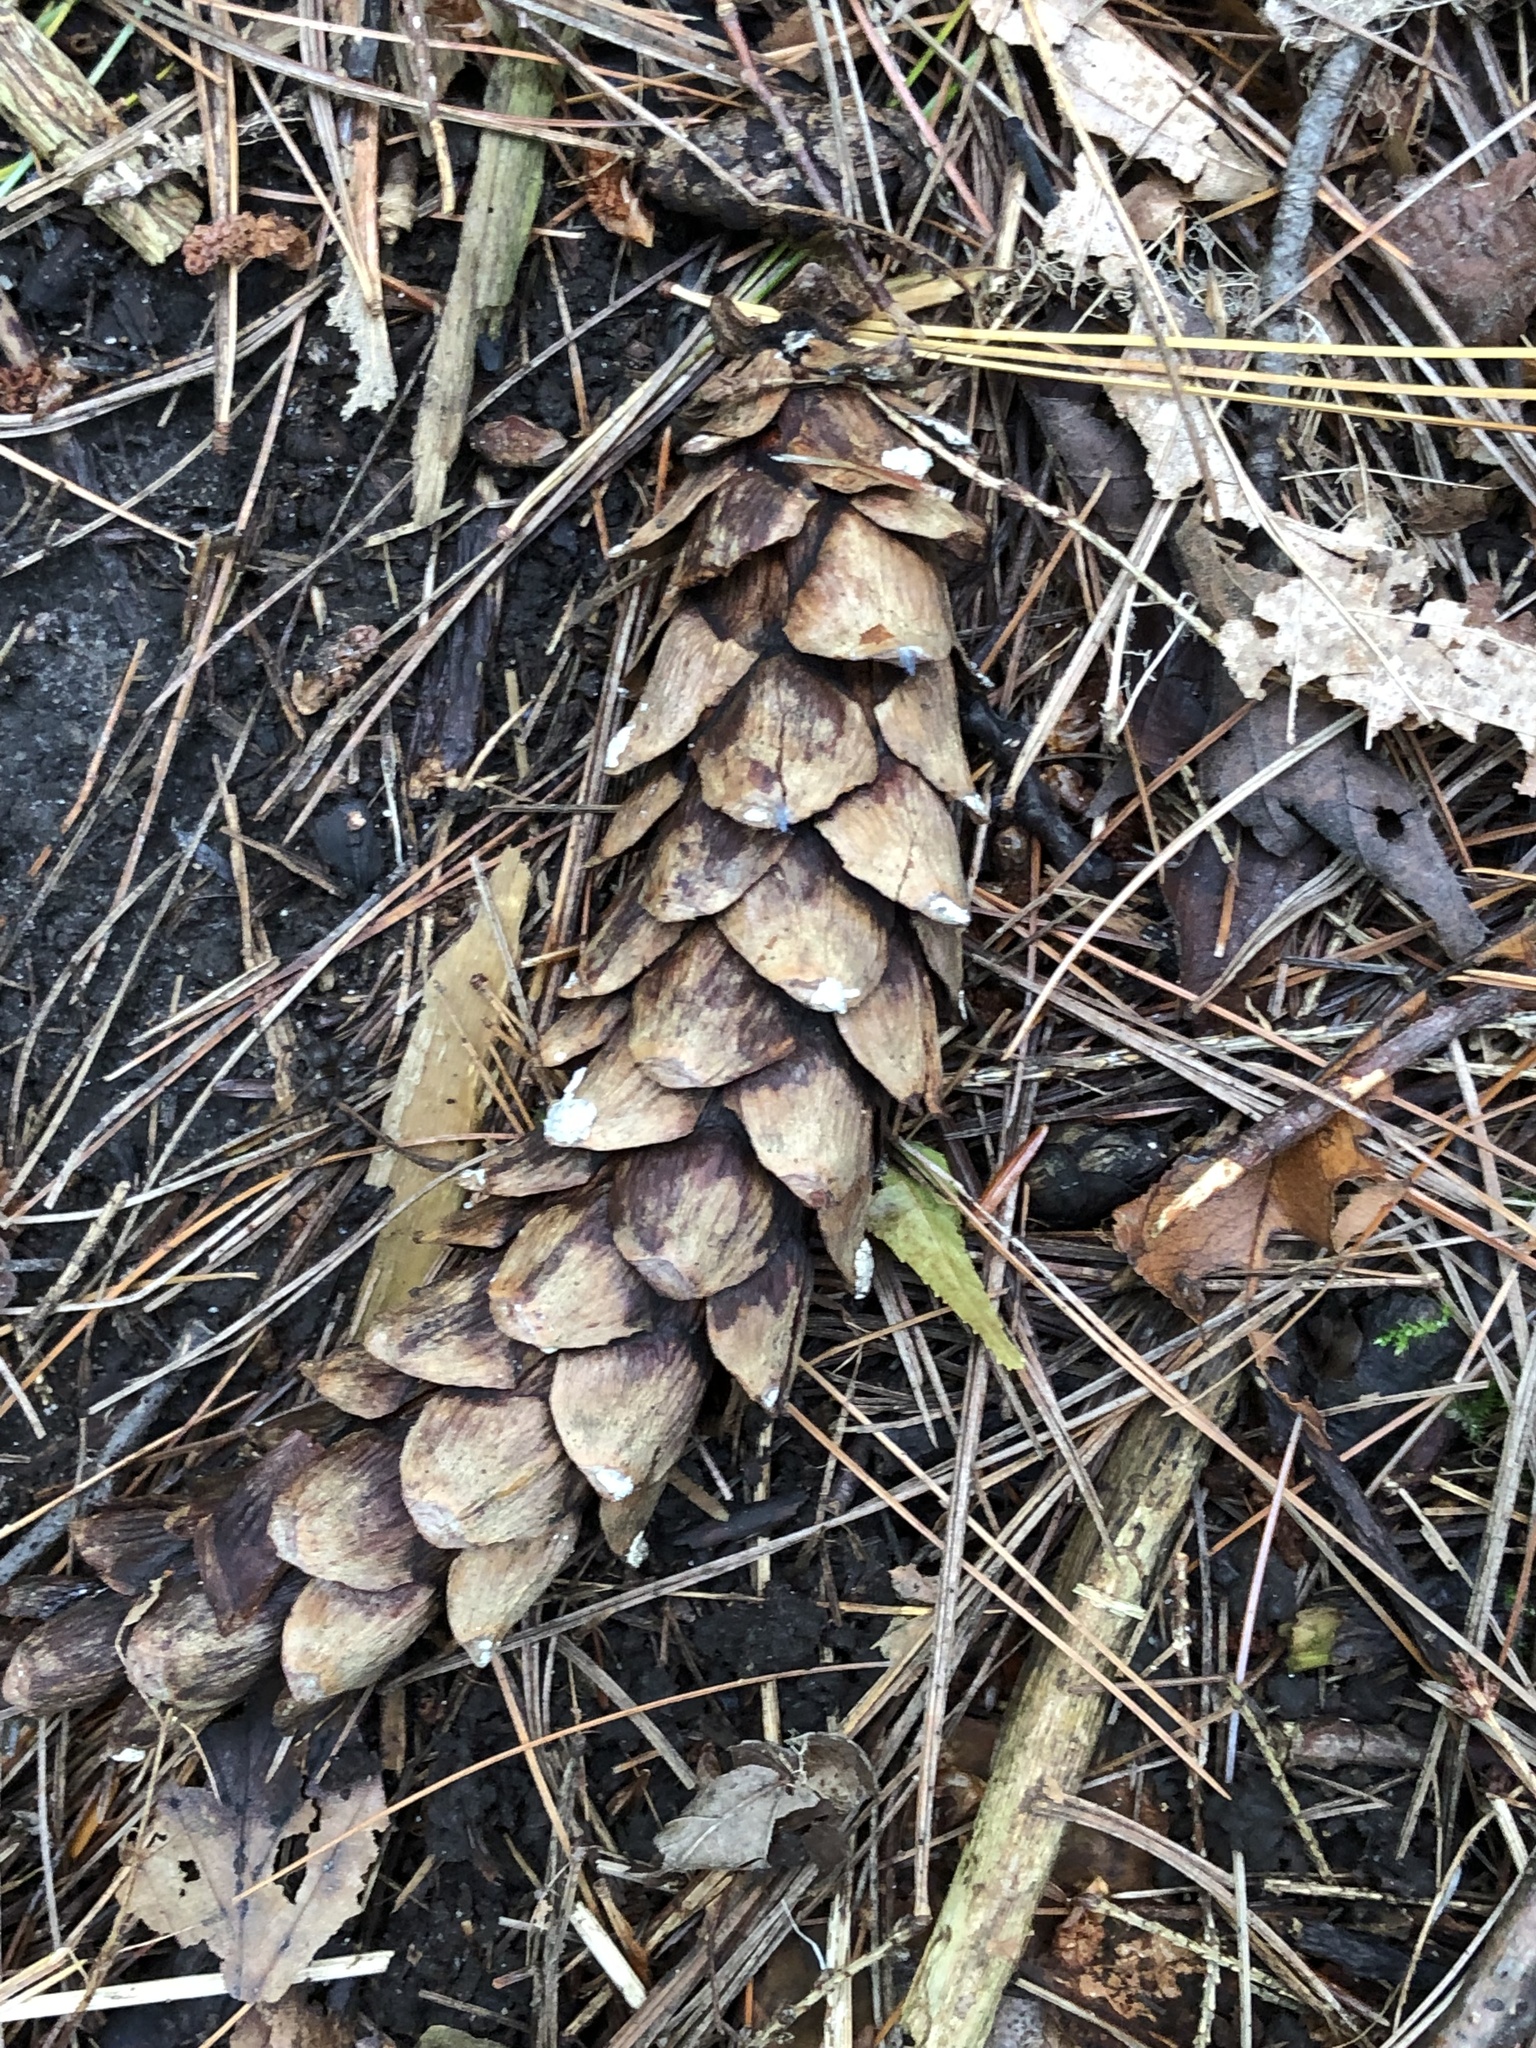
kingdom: Plantae
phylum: Tracheophyta
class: Pinopsida
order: Pinales
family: Pinaceae
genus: Pinus
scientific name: Pinus strobus
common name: Weymouth pine
